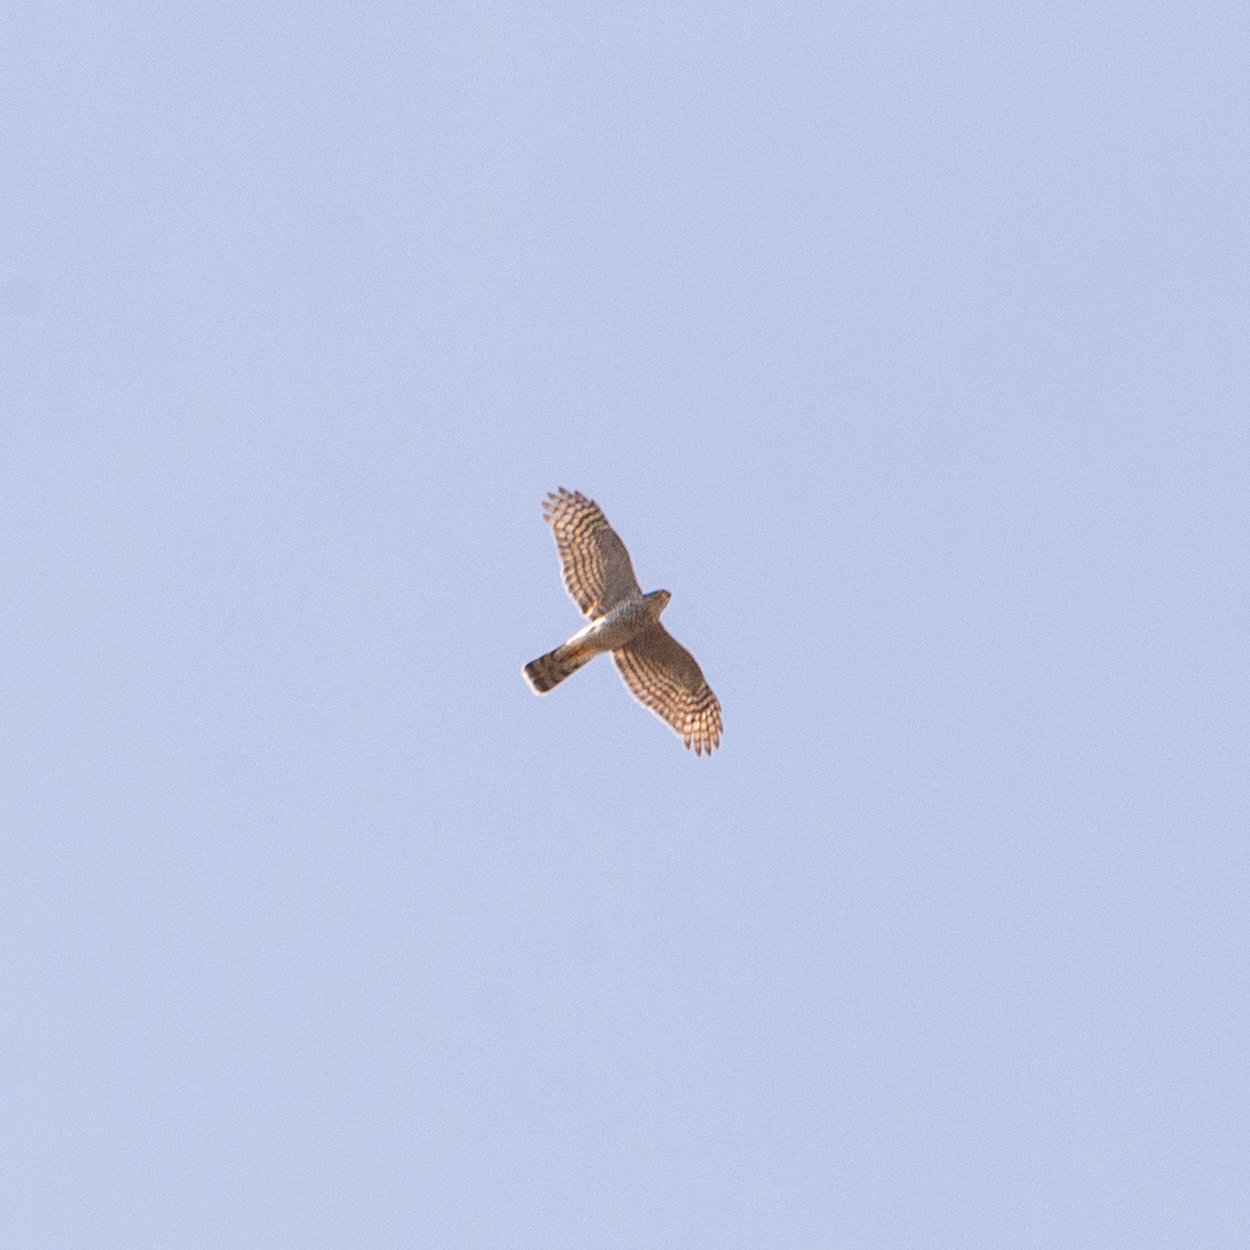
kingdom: Animalia
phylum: Chordata
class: Aves
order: Accipitriformes
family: Accipitridae
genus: Accipiter
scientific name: Accipiter nisus
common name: Eurasian sparrowhawk
